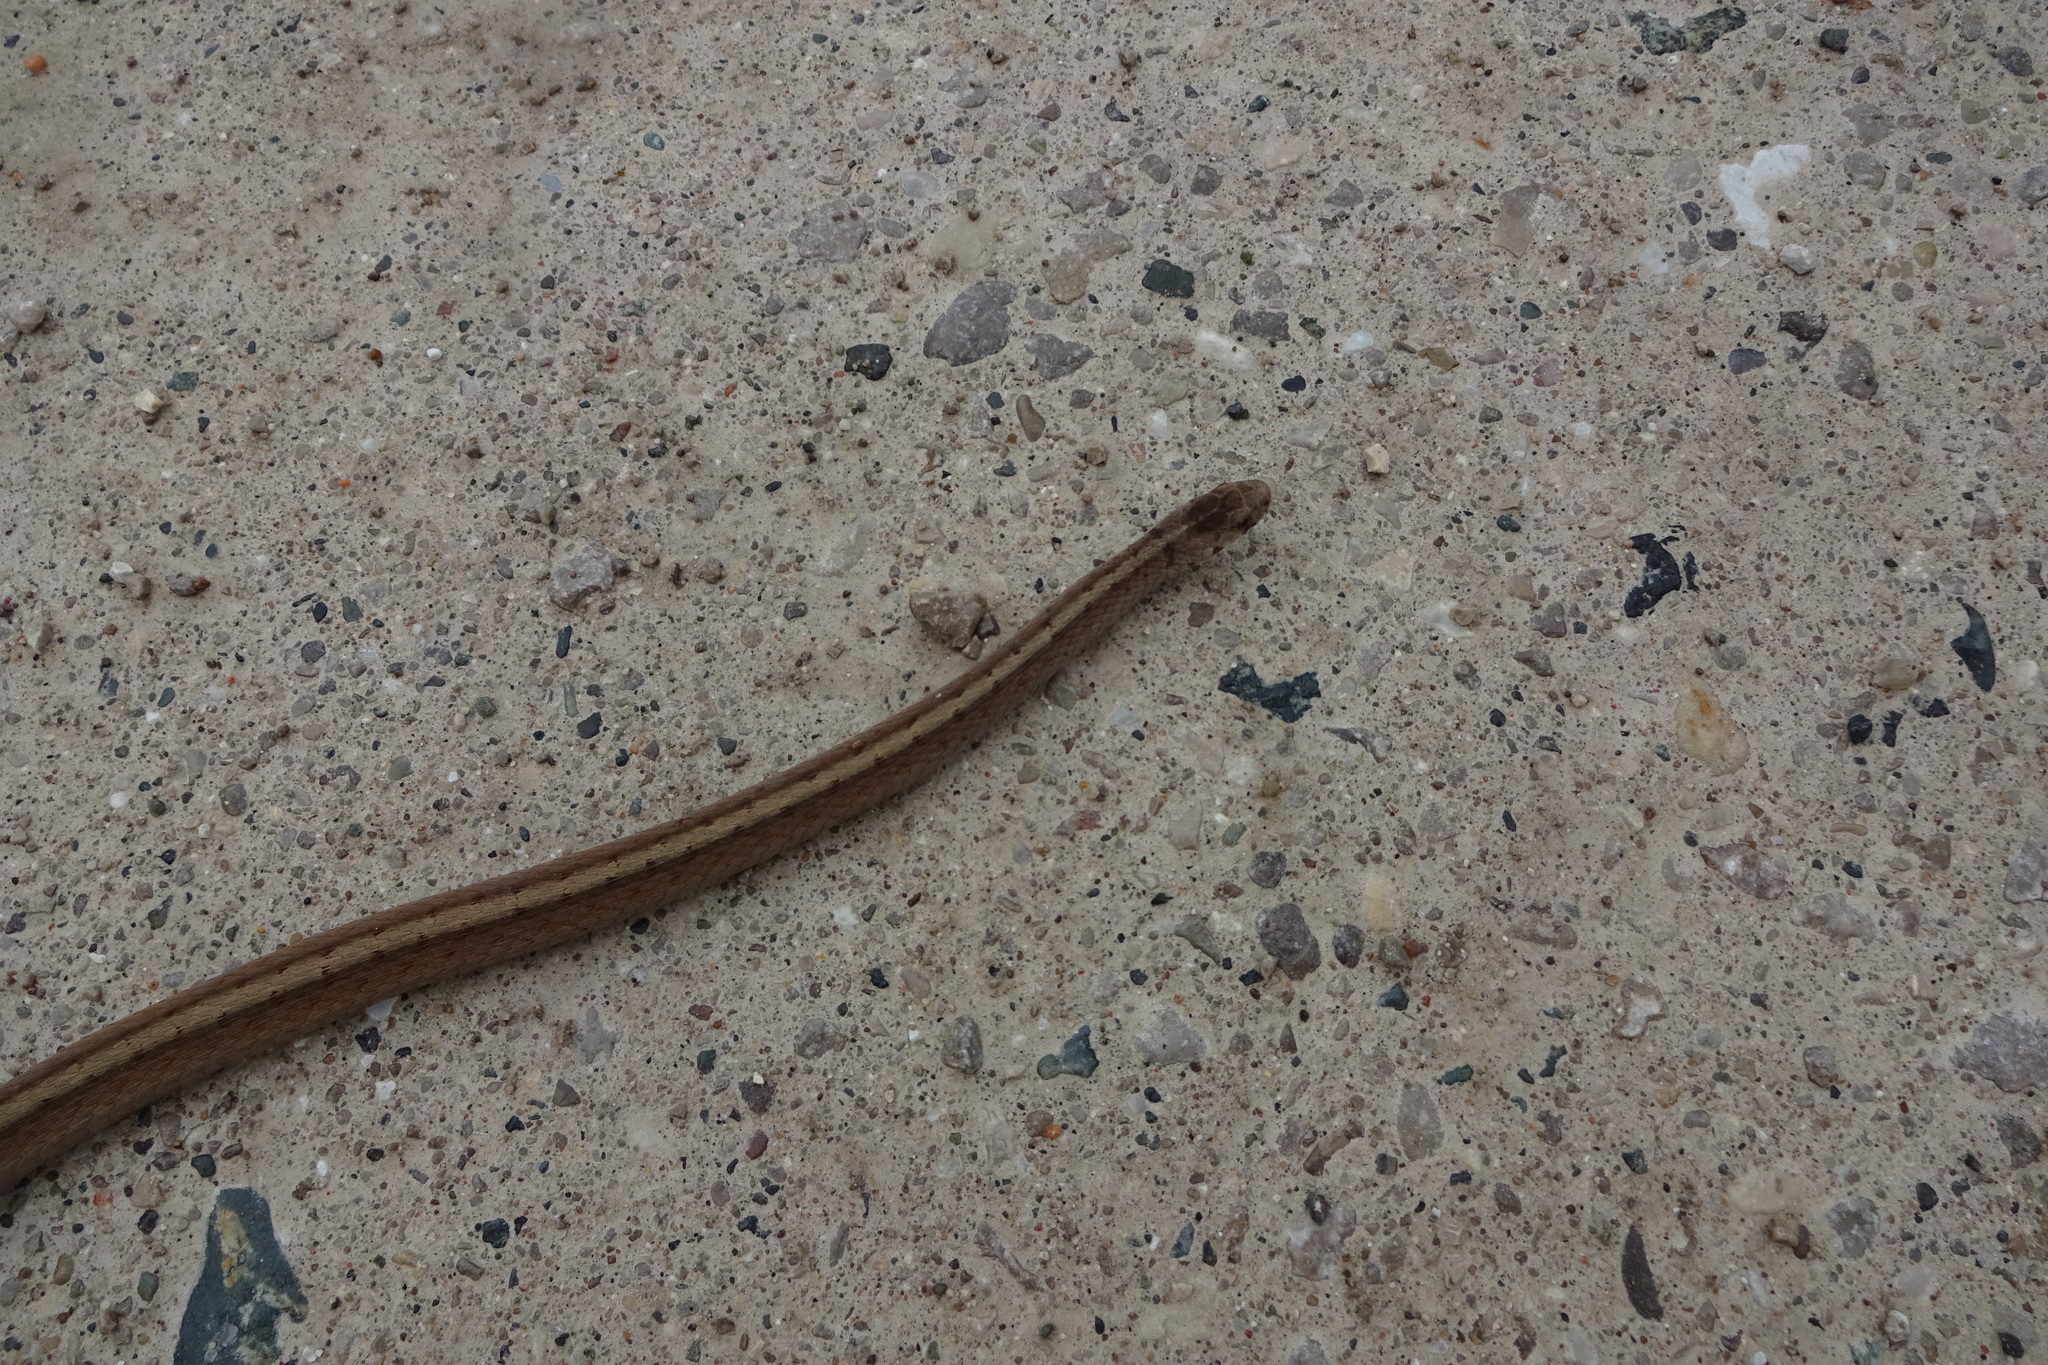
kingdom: Animalia
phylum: Chordata
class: Squamata
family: Colubridae
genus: Storeria
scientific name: Storeria dekayi
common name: (dekay’s) brown snake
